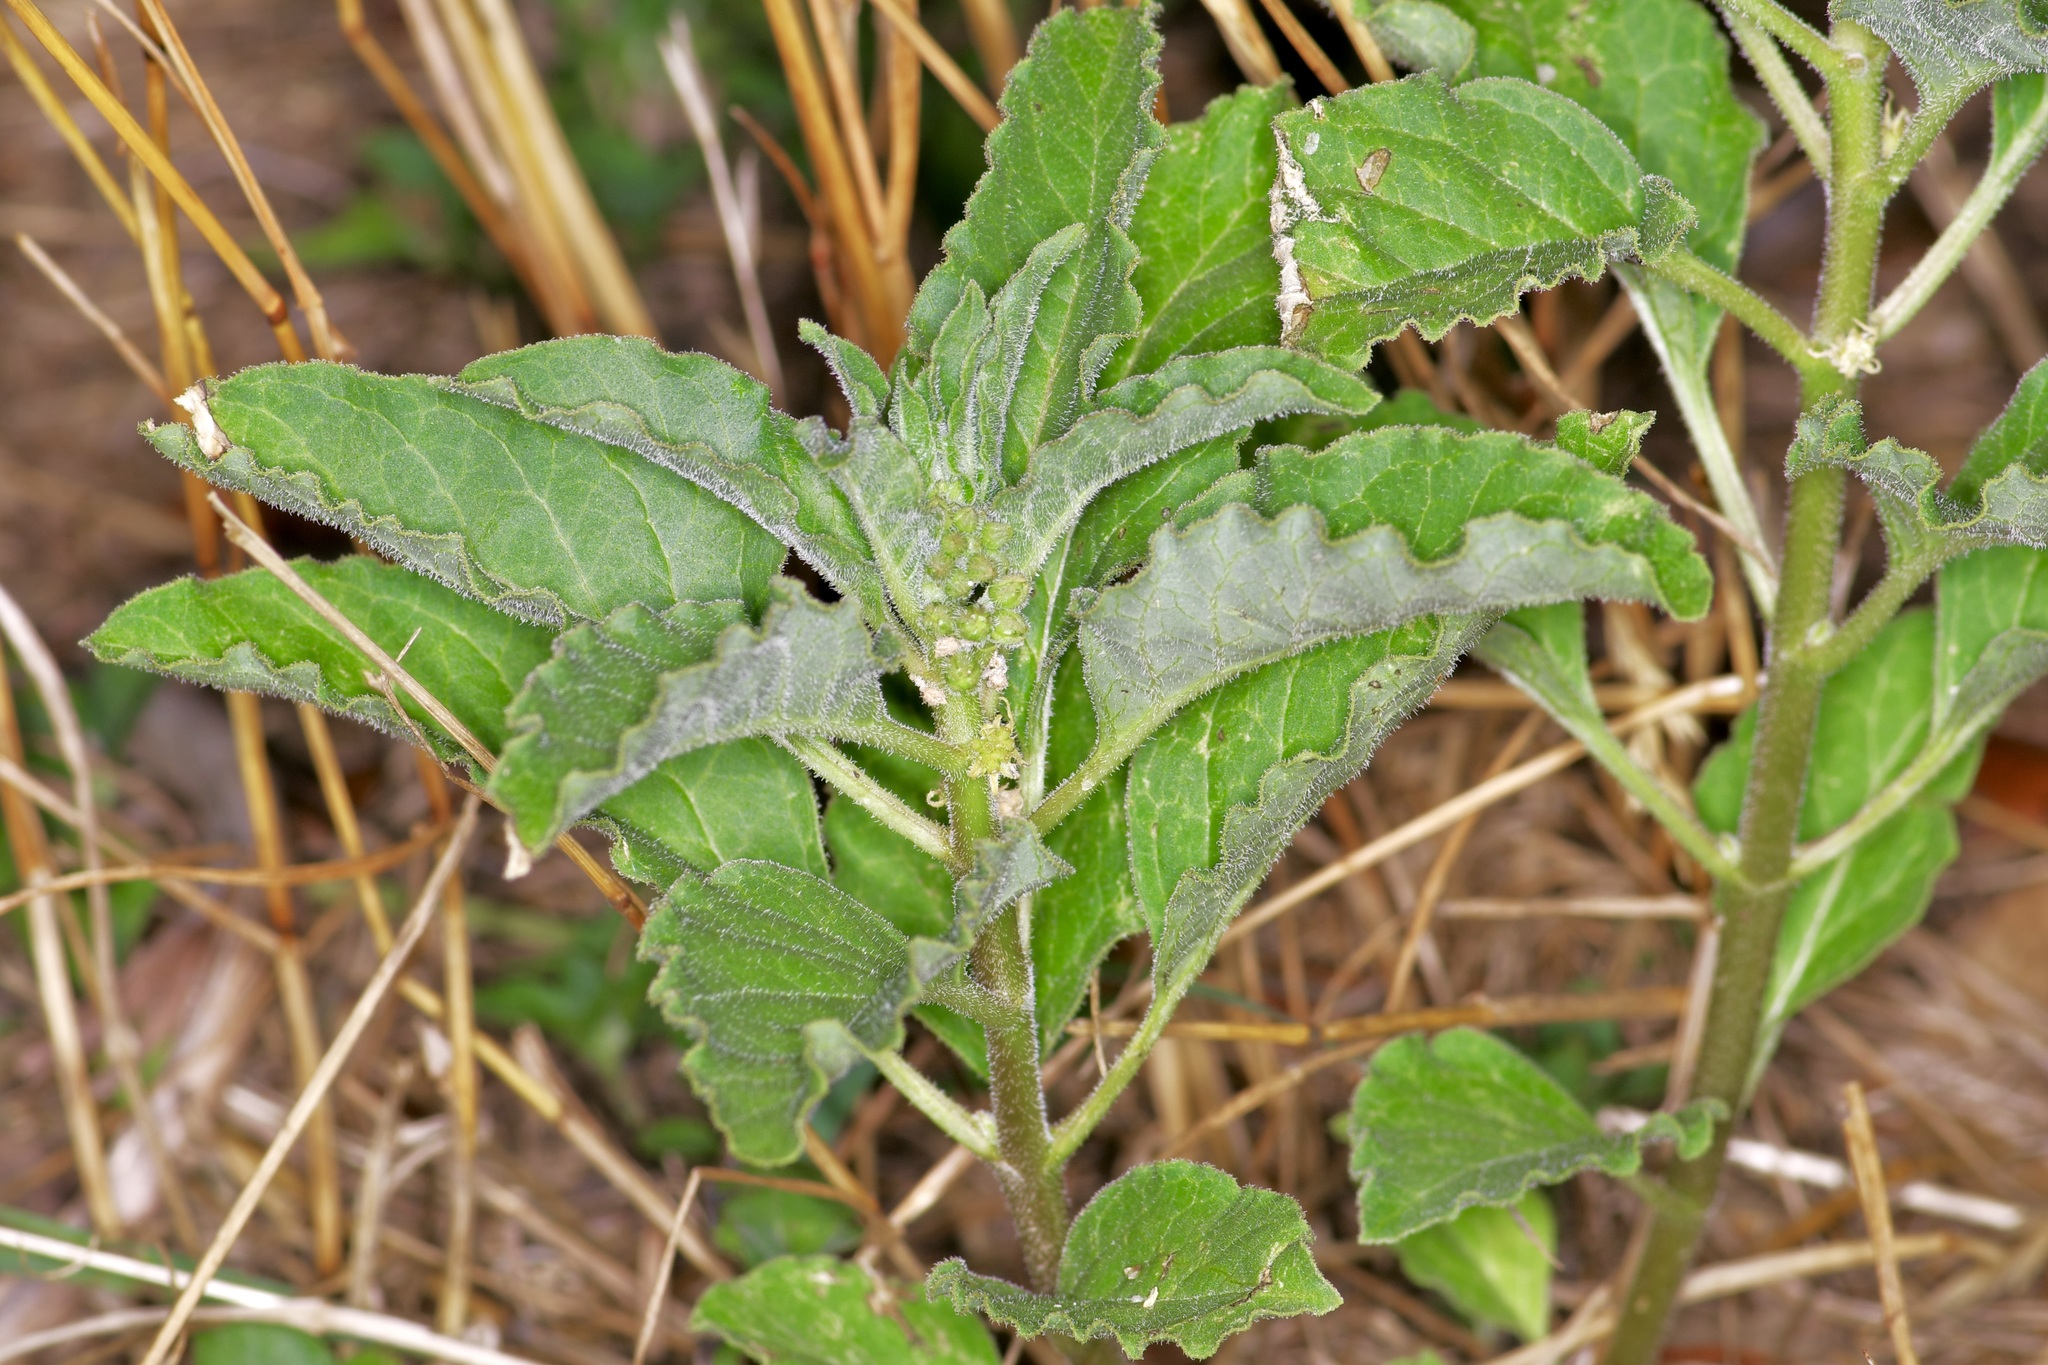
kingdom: Plantae
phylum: Tracheophyta
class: Magnoliopsida
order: Gentianales
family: Apocynaceae
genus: Asclepias
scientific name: Asclepias oenotheroides
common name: Zizotes milkweed
